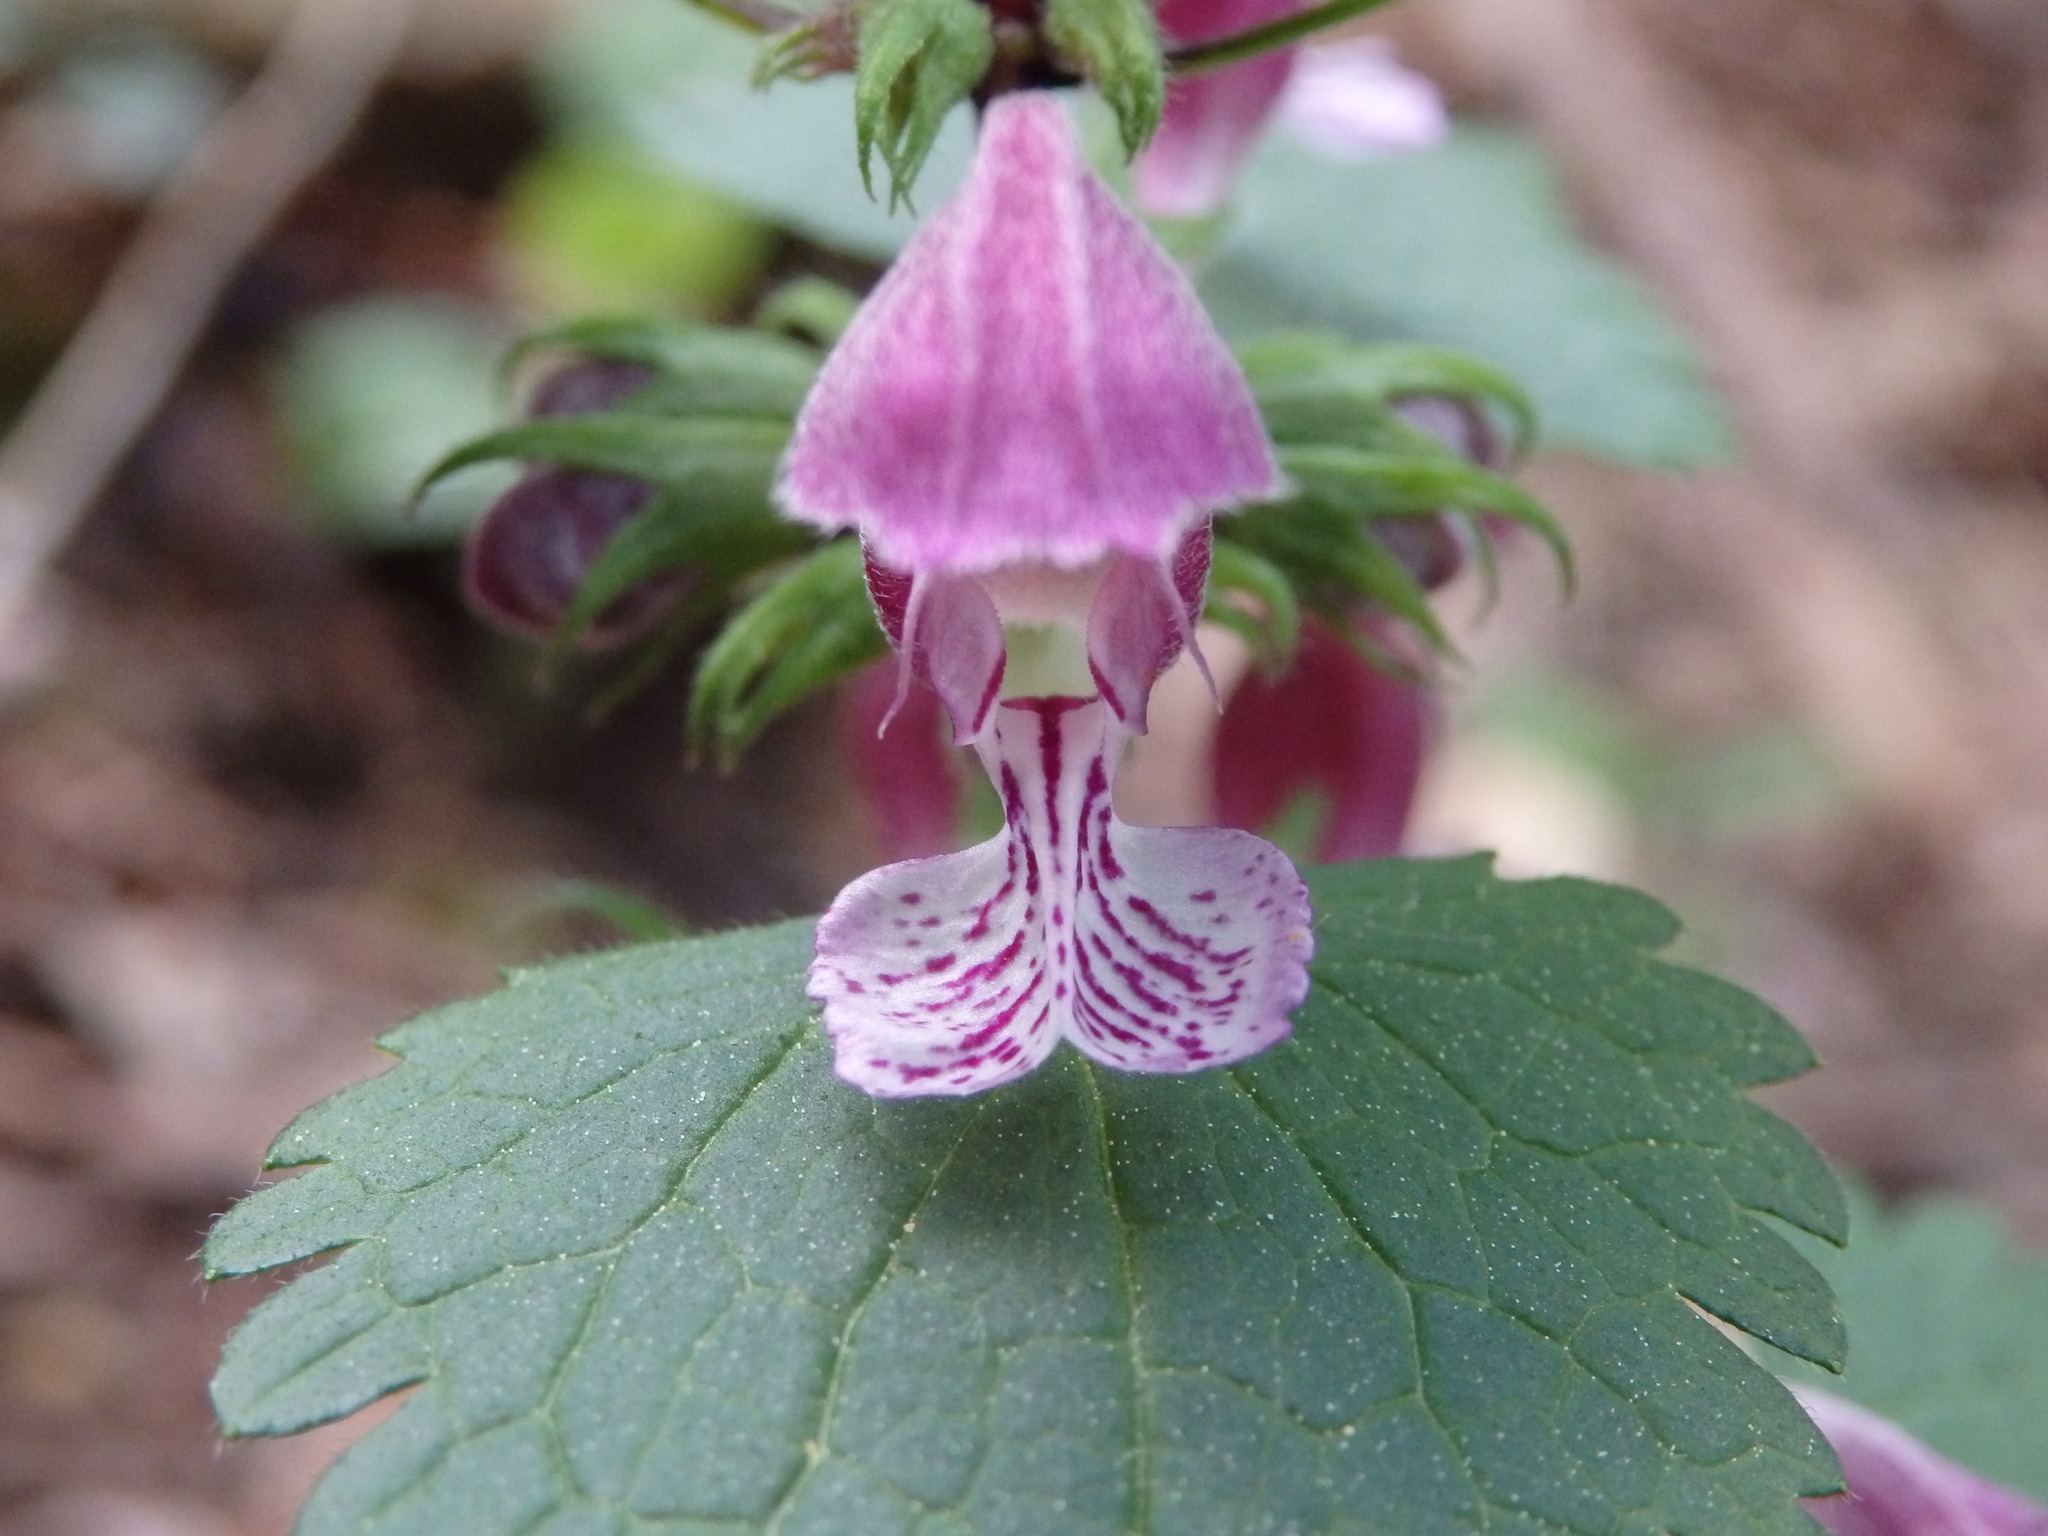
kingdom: Plantae
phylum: Tracheophyta
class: Magnoliopsida
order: Lamiales
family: Lamiaceae
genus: Lamium
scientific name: Lamium maculatum
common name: Spotted dead-nettle
